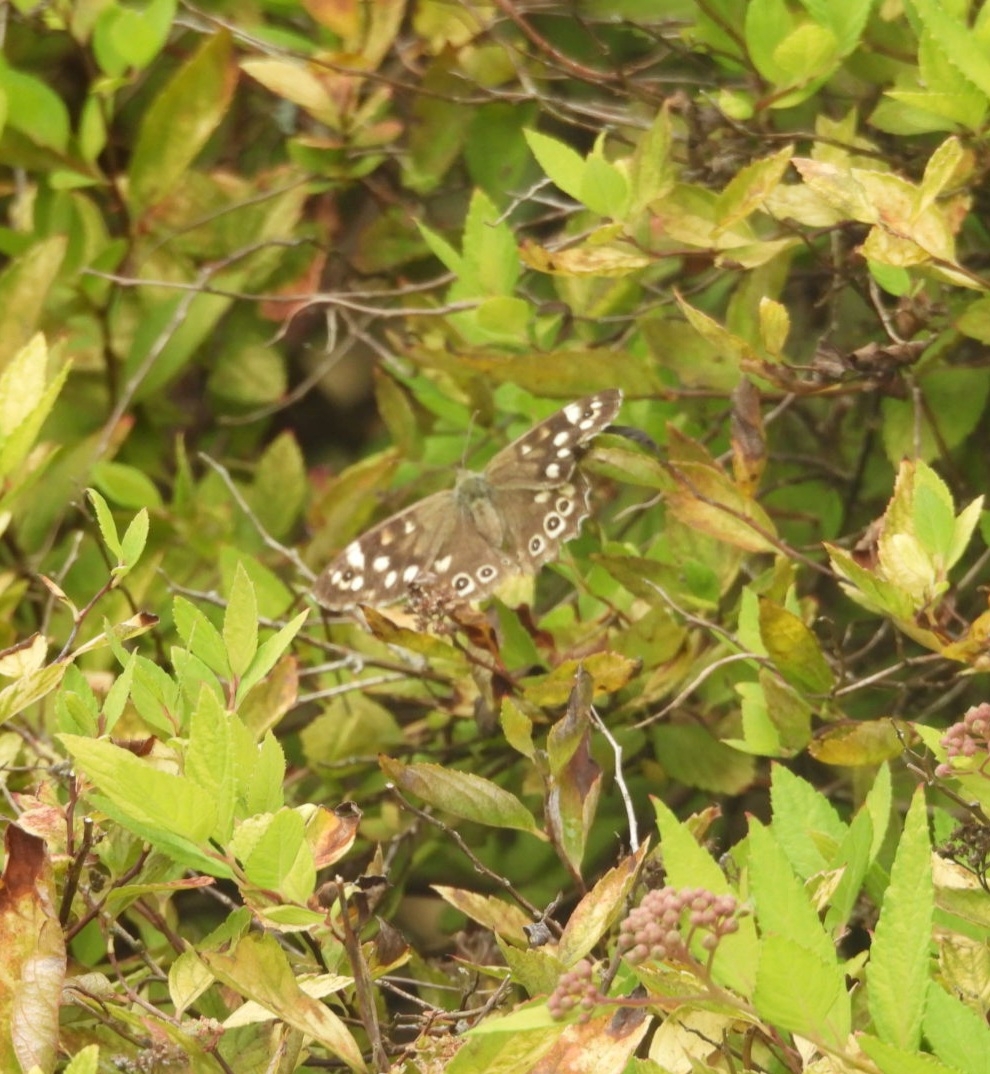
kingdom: Animalia
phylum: Arthropoda
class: Insecta
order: Lepidoptera
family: Nymphalidae
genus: Pararge
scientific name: Pararge aegeria
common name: Speckled wood
